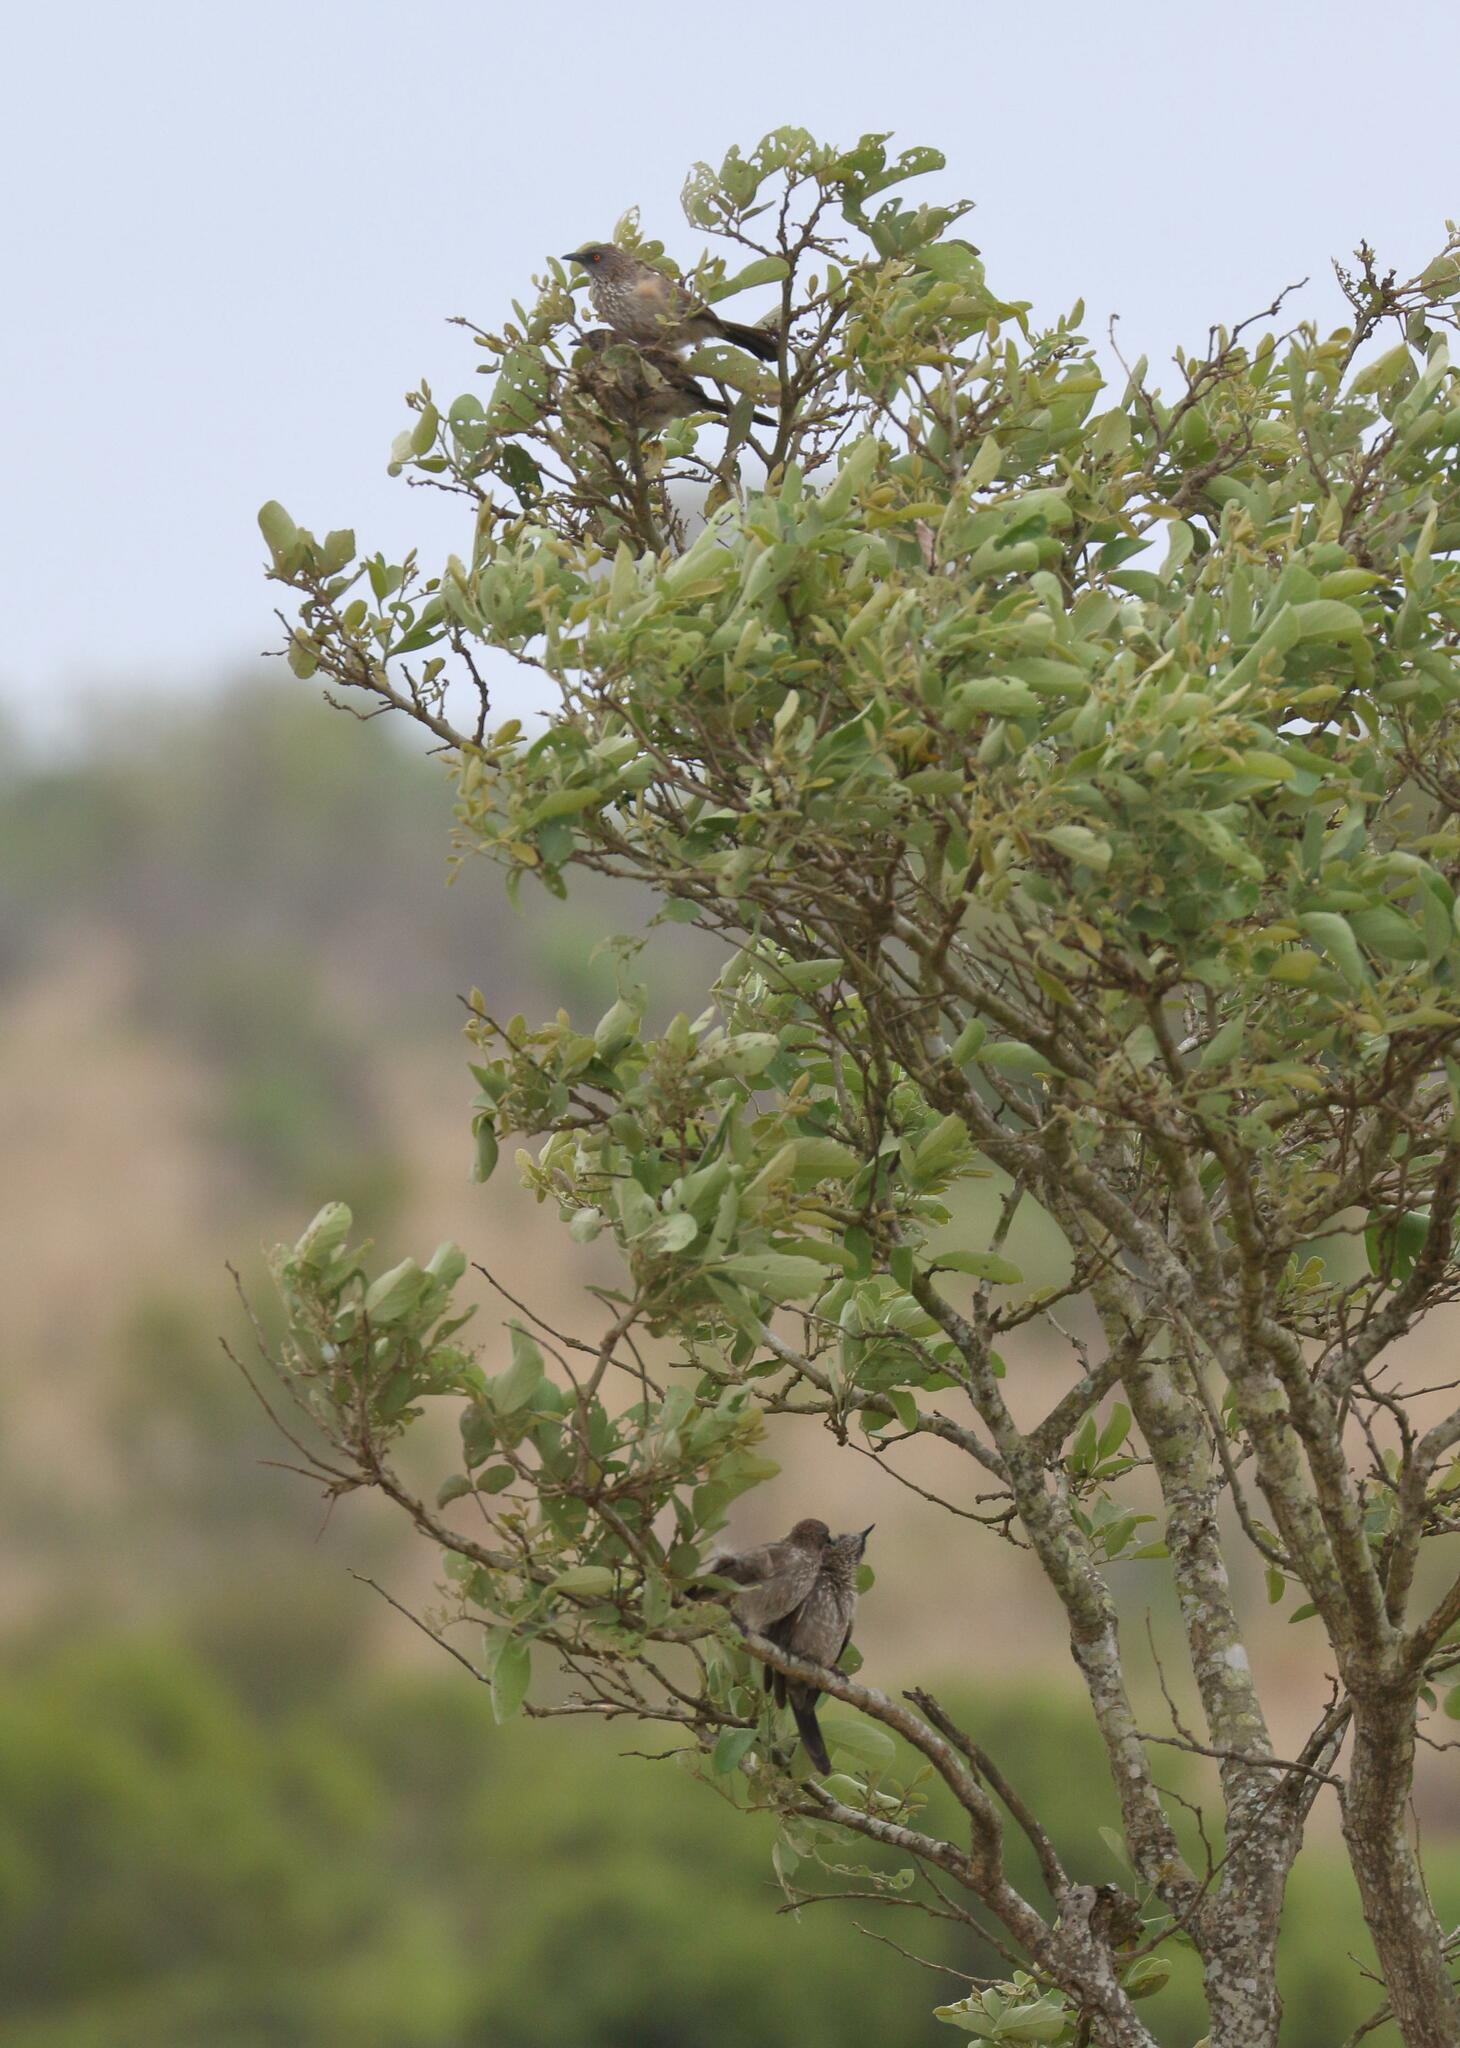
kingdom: Animalia
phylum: Chordata
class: Aves
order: Passeriformes
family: Leiothrichidae
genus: Turdoides
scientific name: Turdoides jardineii
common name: Arrow-marked babbler
